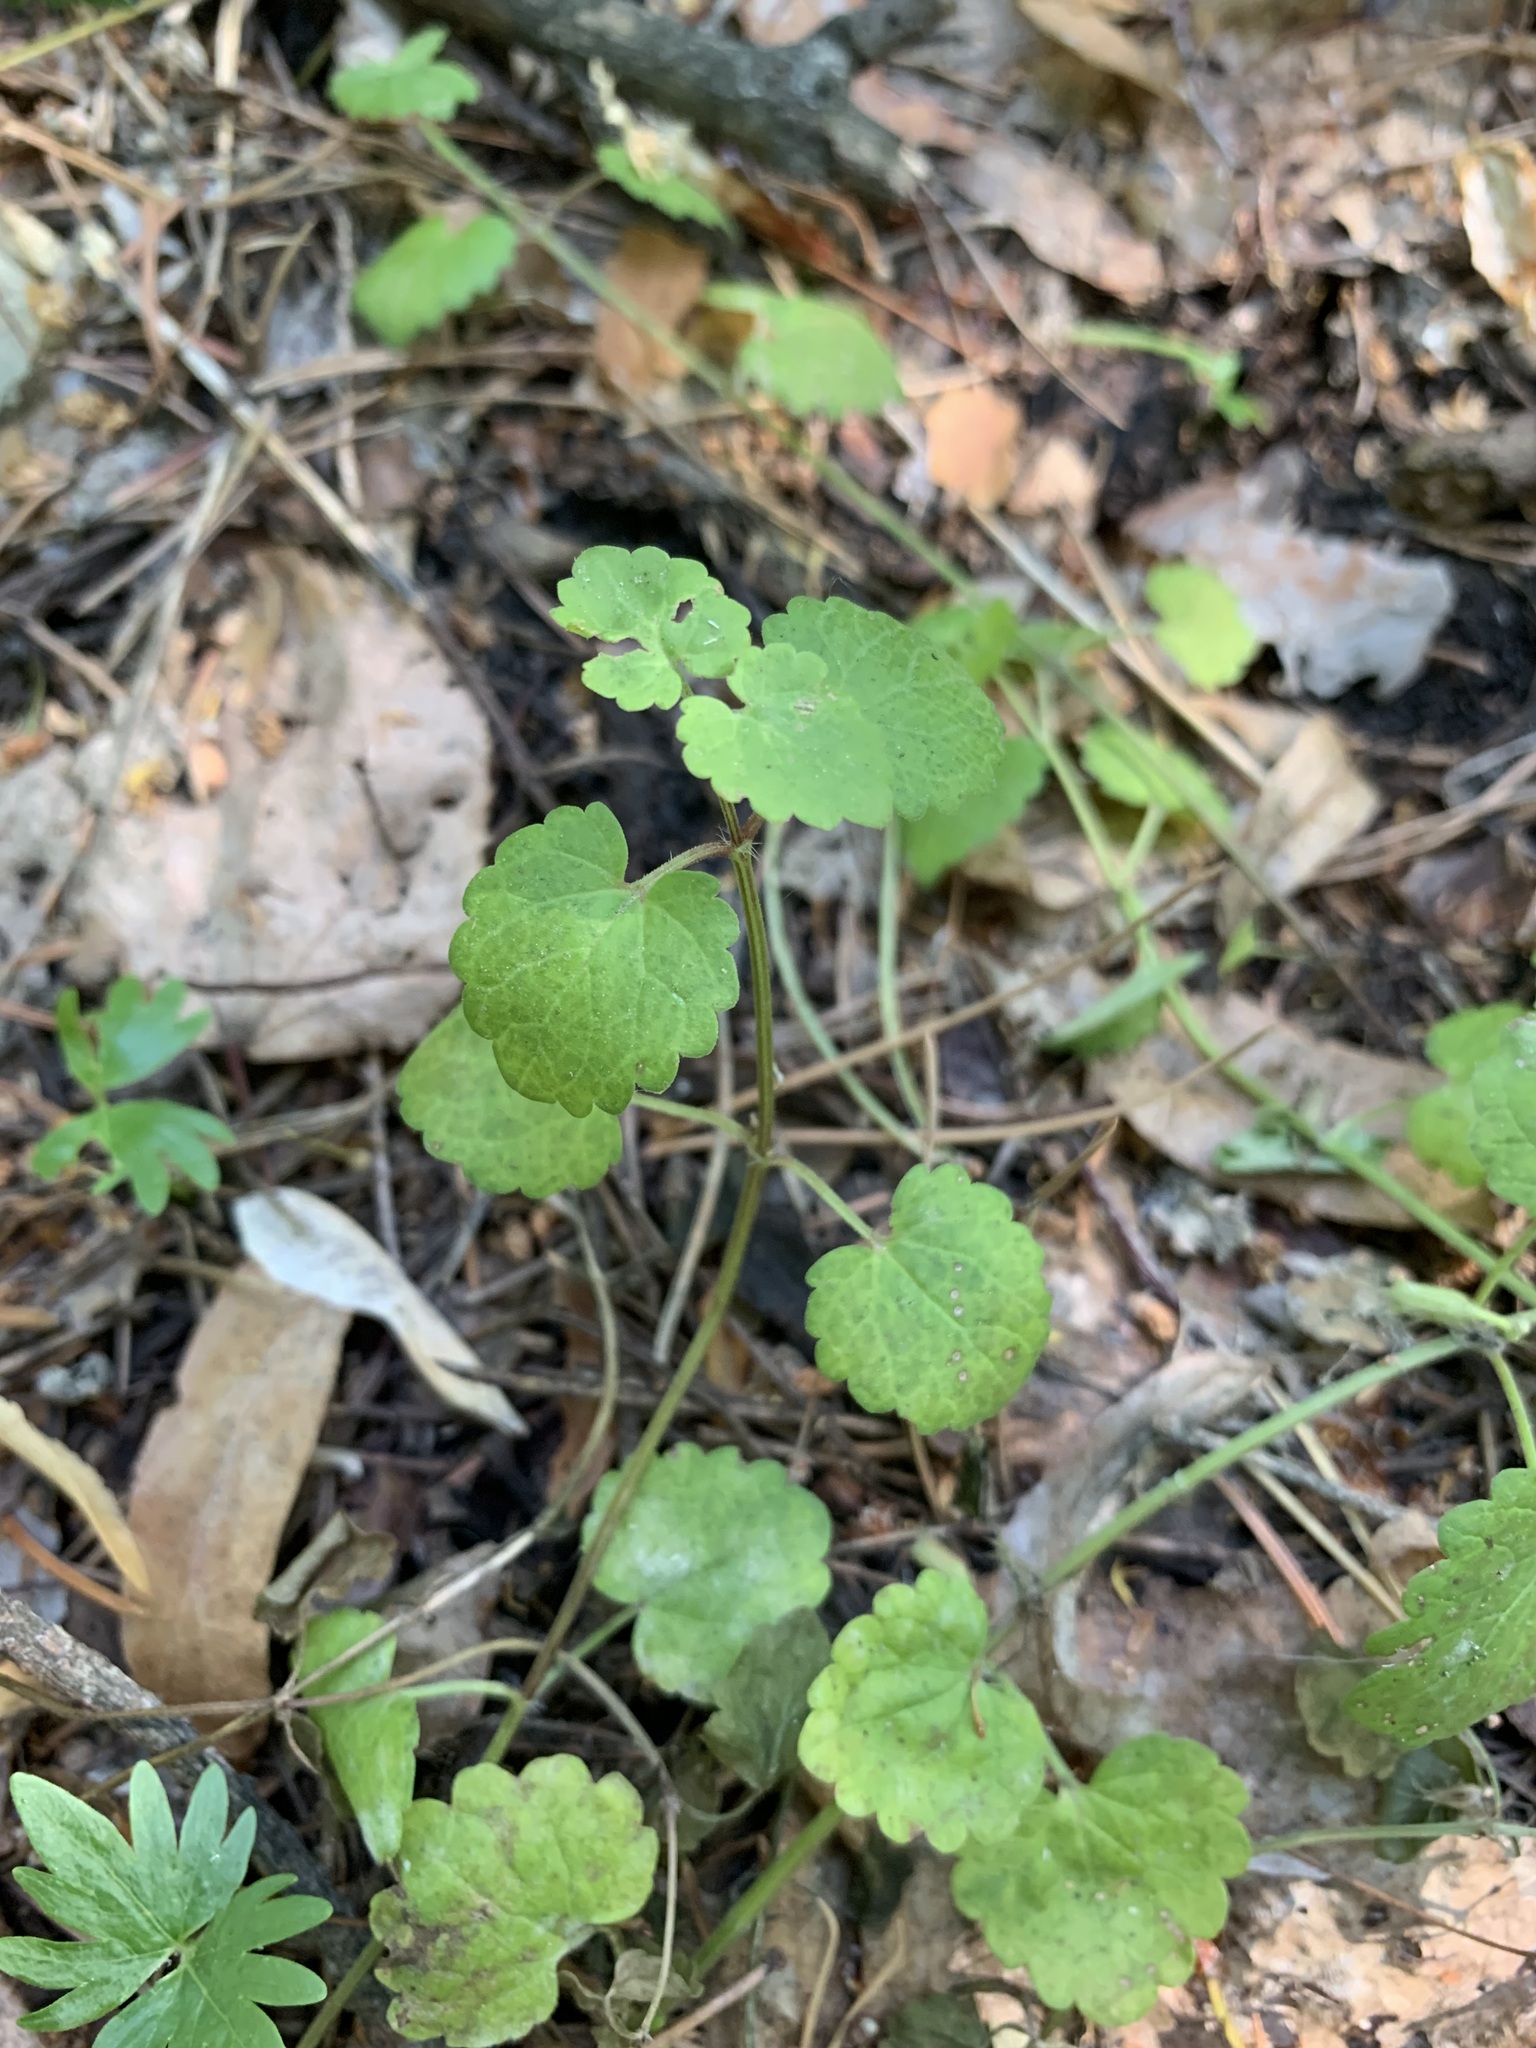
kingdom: Plantae
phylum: Tracheophyta
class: Magnoliopsida
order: Lamiales
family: Lamiaceae
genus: Glechoma
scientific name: Glechoma hederacea
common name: Ground ivy
